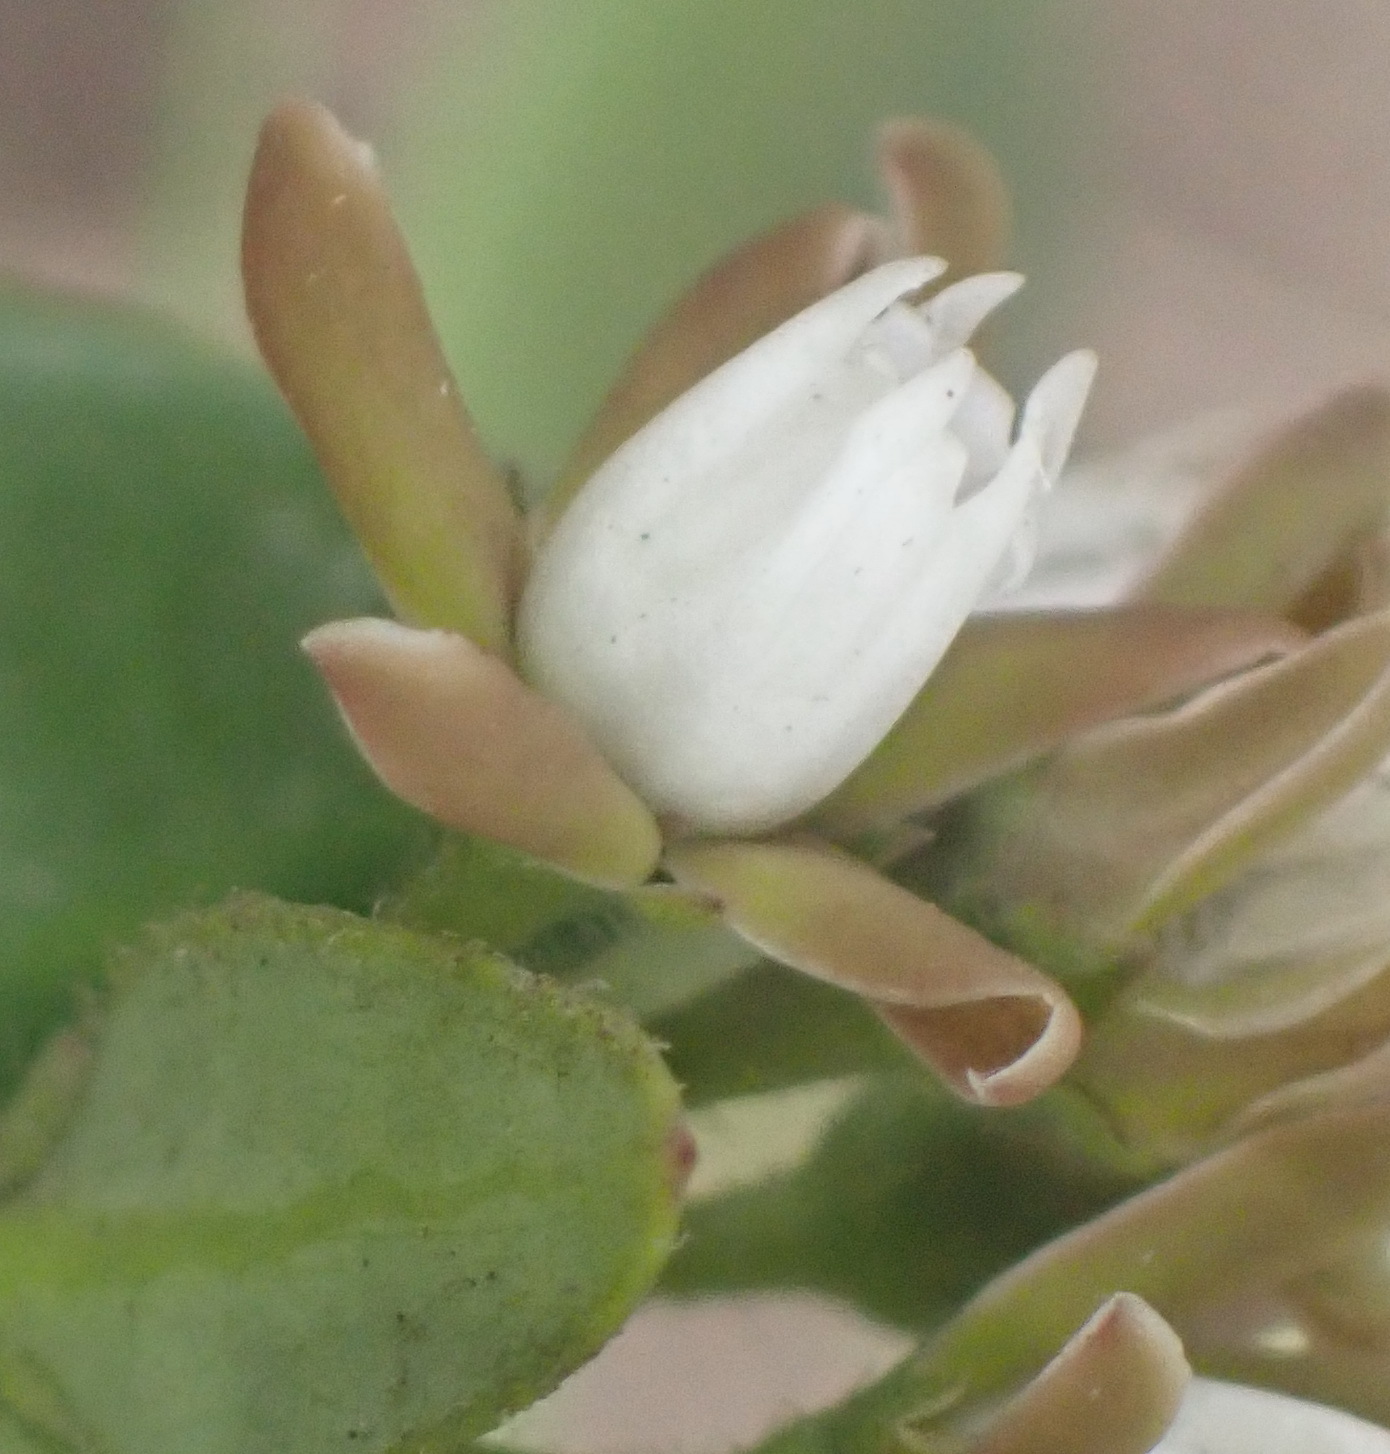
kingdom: Plantae
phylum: Tracheophyta
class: Magnoliopsida
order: Gentianales
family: Apocynaceae
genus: Cynanchum
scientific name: Cynanchum africanum
